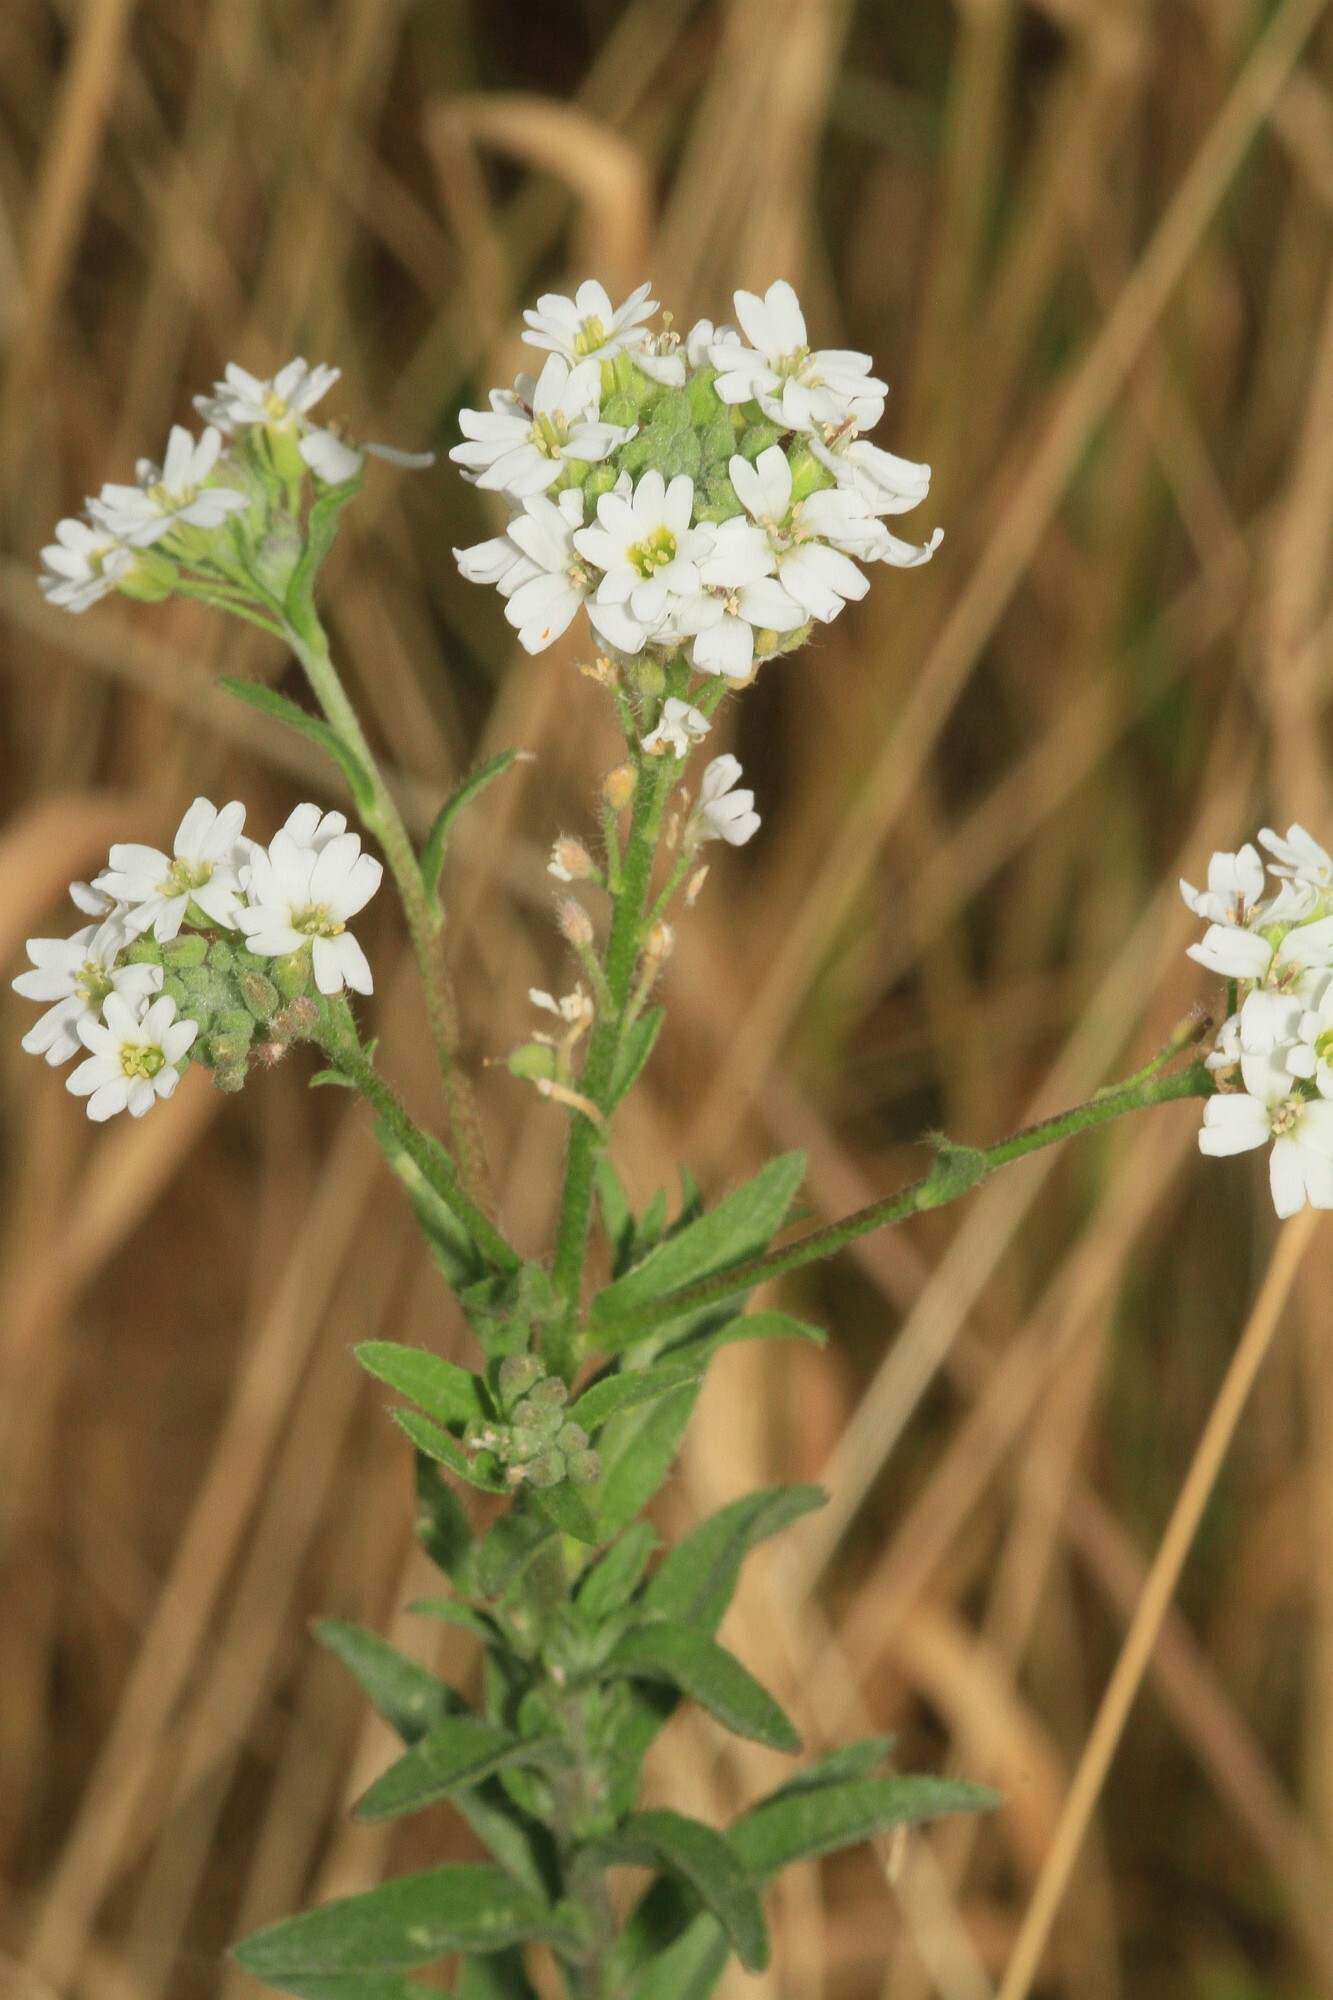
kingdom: Plantae
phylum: Tracheophyta
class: Magnoliopsida
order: Brassicales
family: Brassicaceae
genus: Berteroa
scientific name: Berteroa incana
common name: Hoary alison
